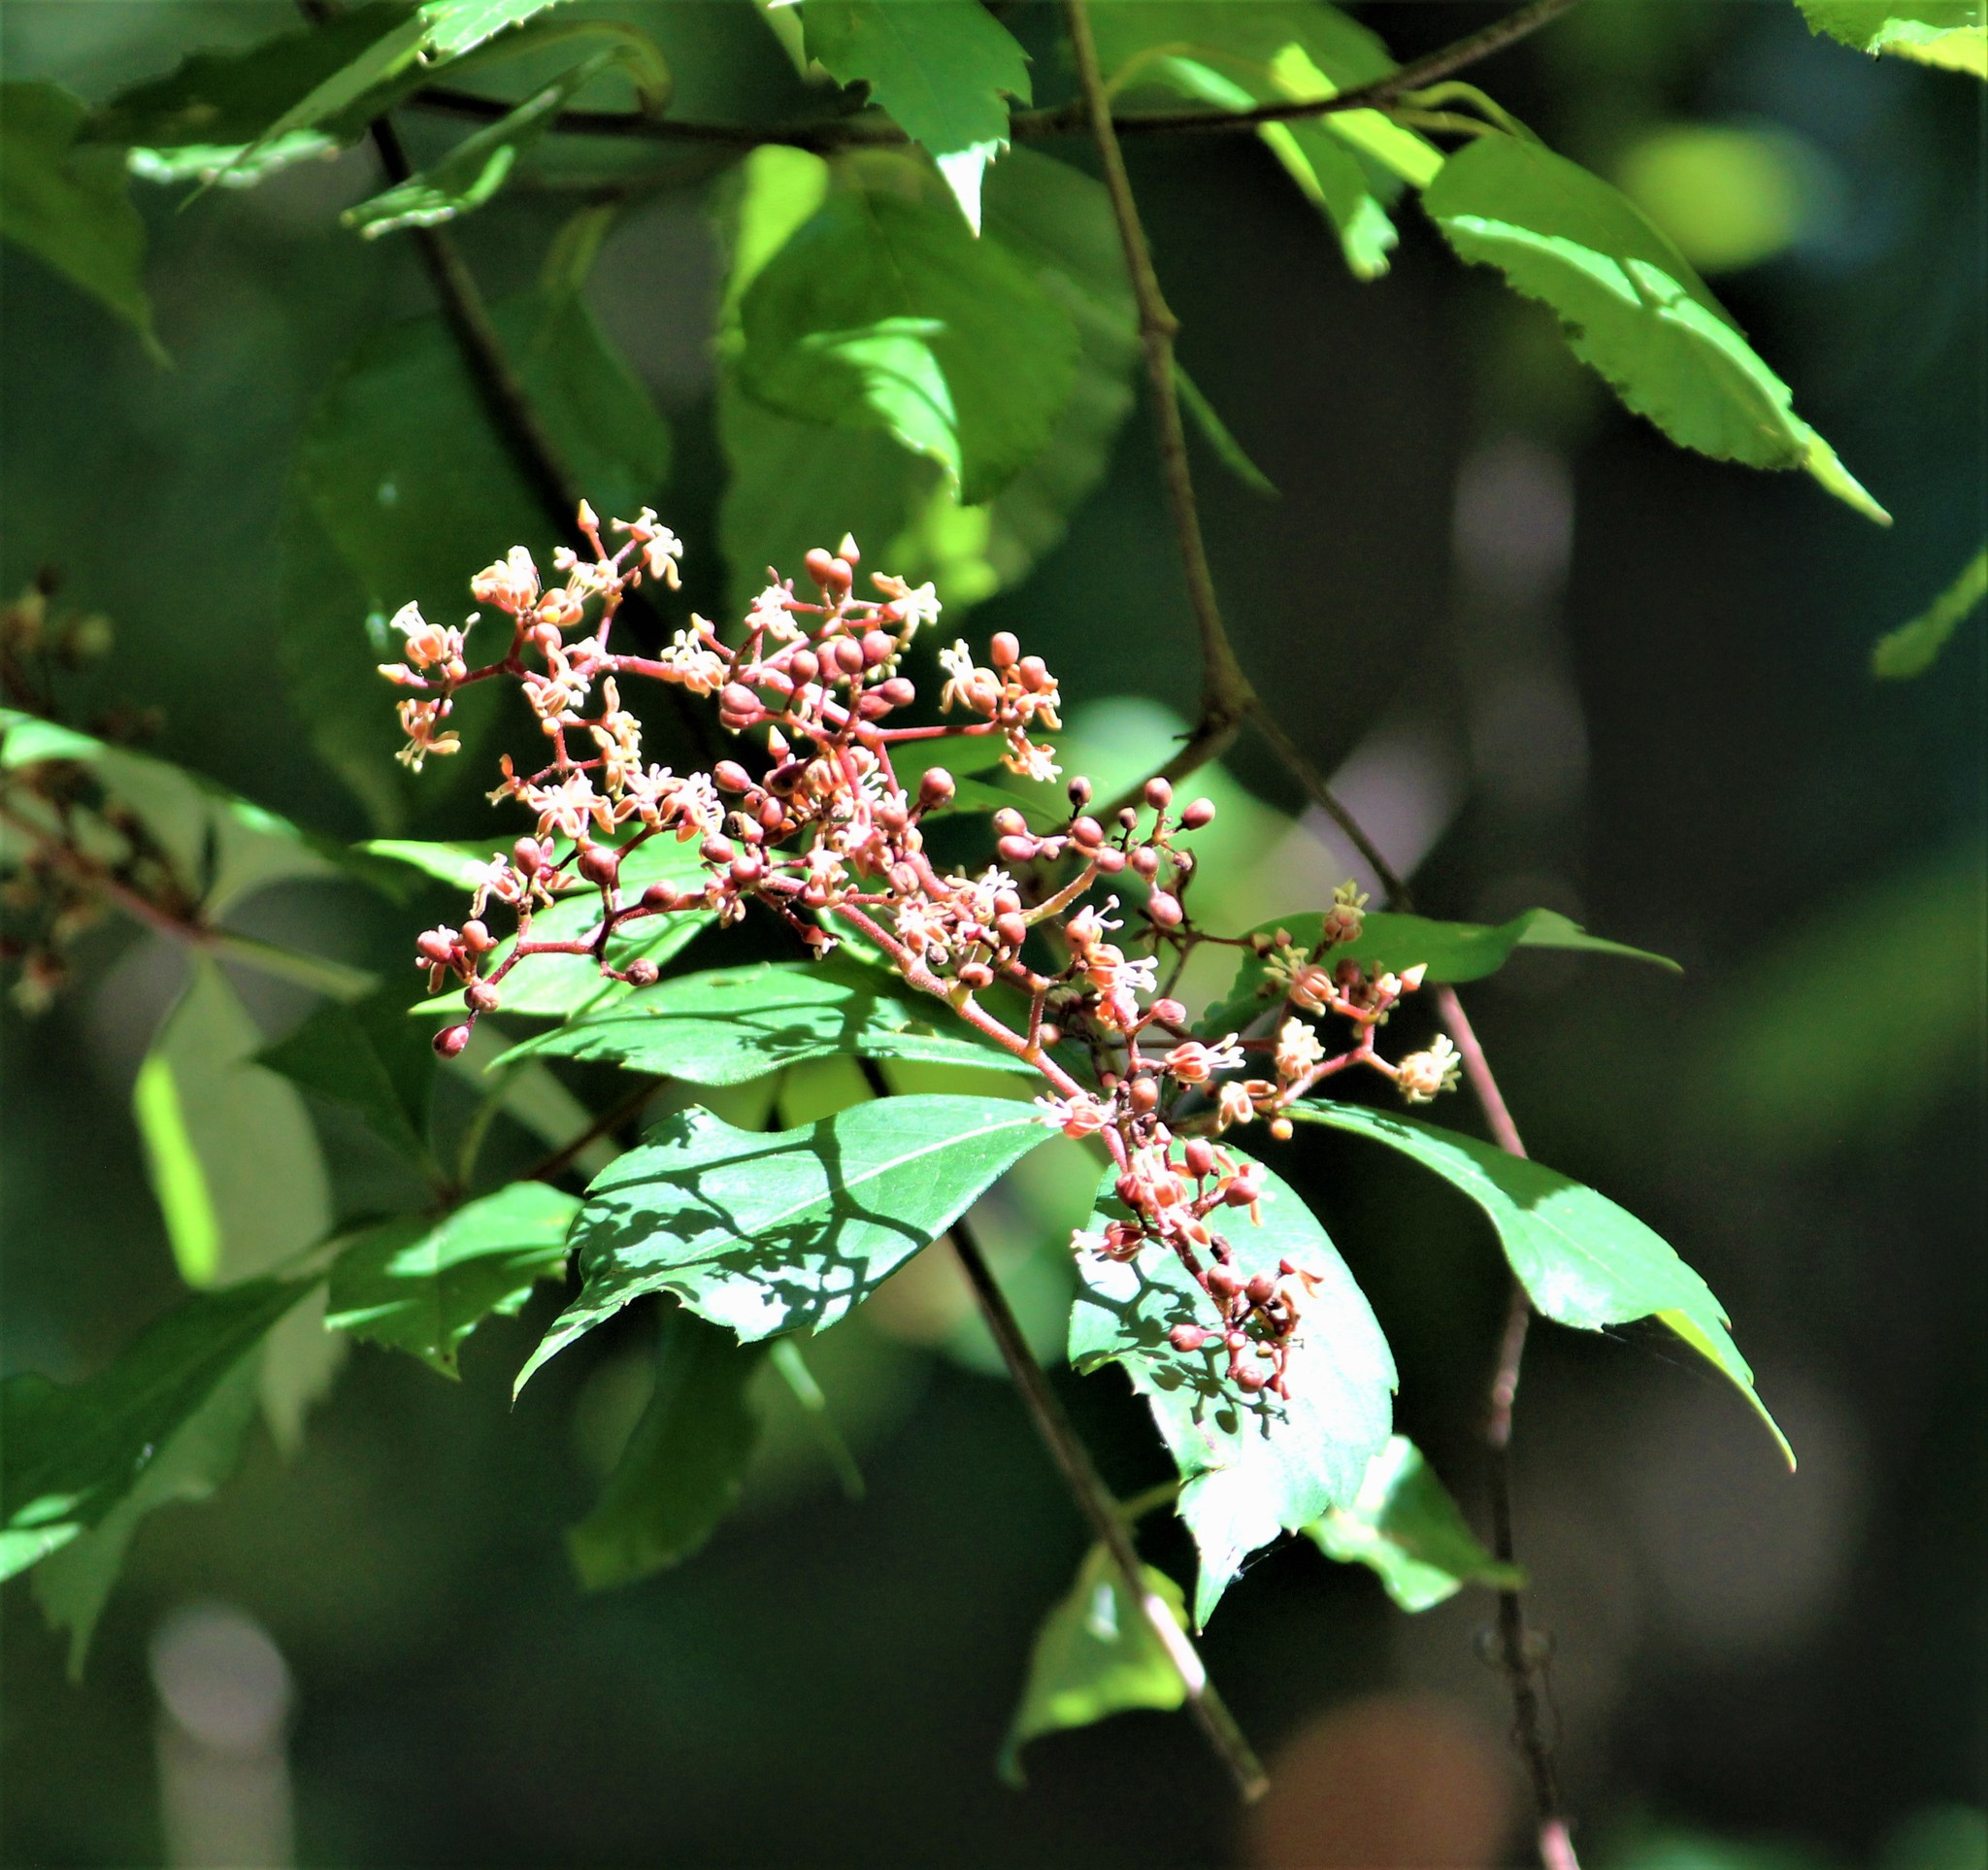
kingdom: Plantae
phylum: Tracheophyta
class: Magnoliopsida
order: Vitales
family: Vitaceae
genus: Parthenocissus
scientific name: Parthenocissus quinquefolia
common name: Virginia-creeper
